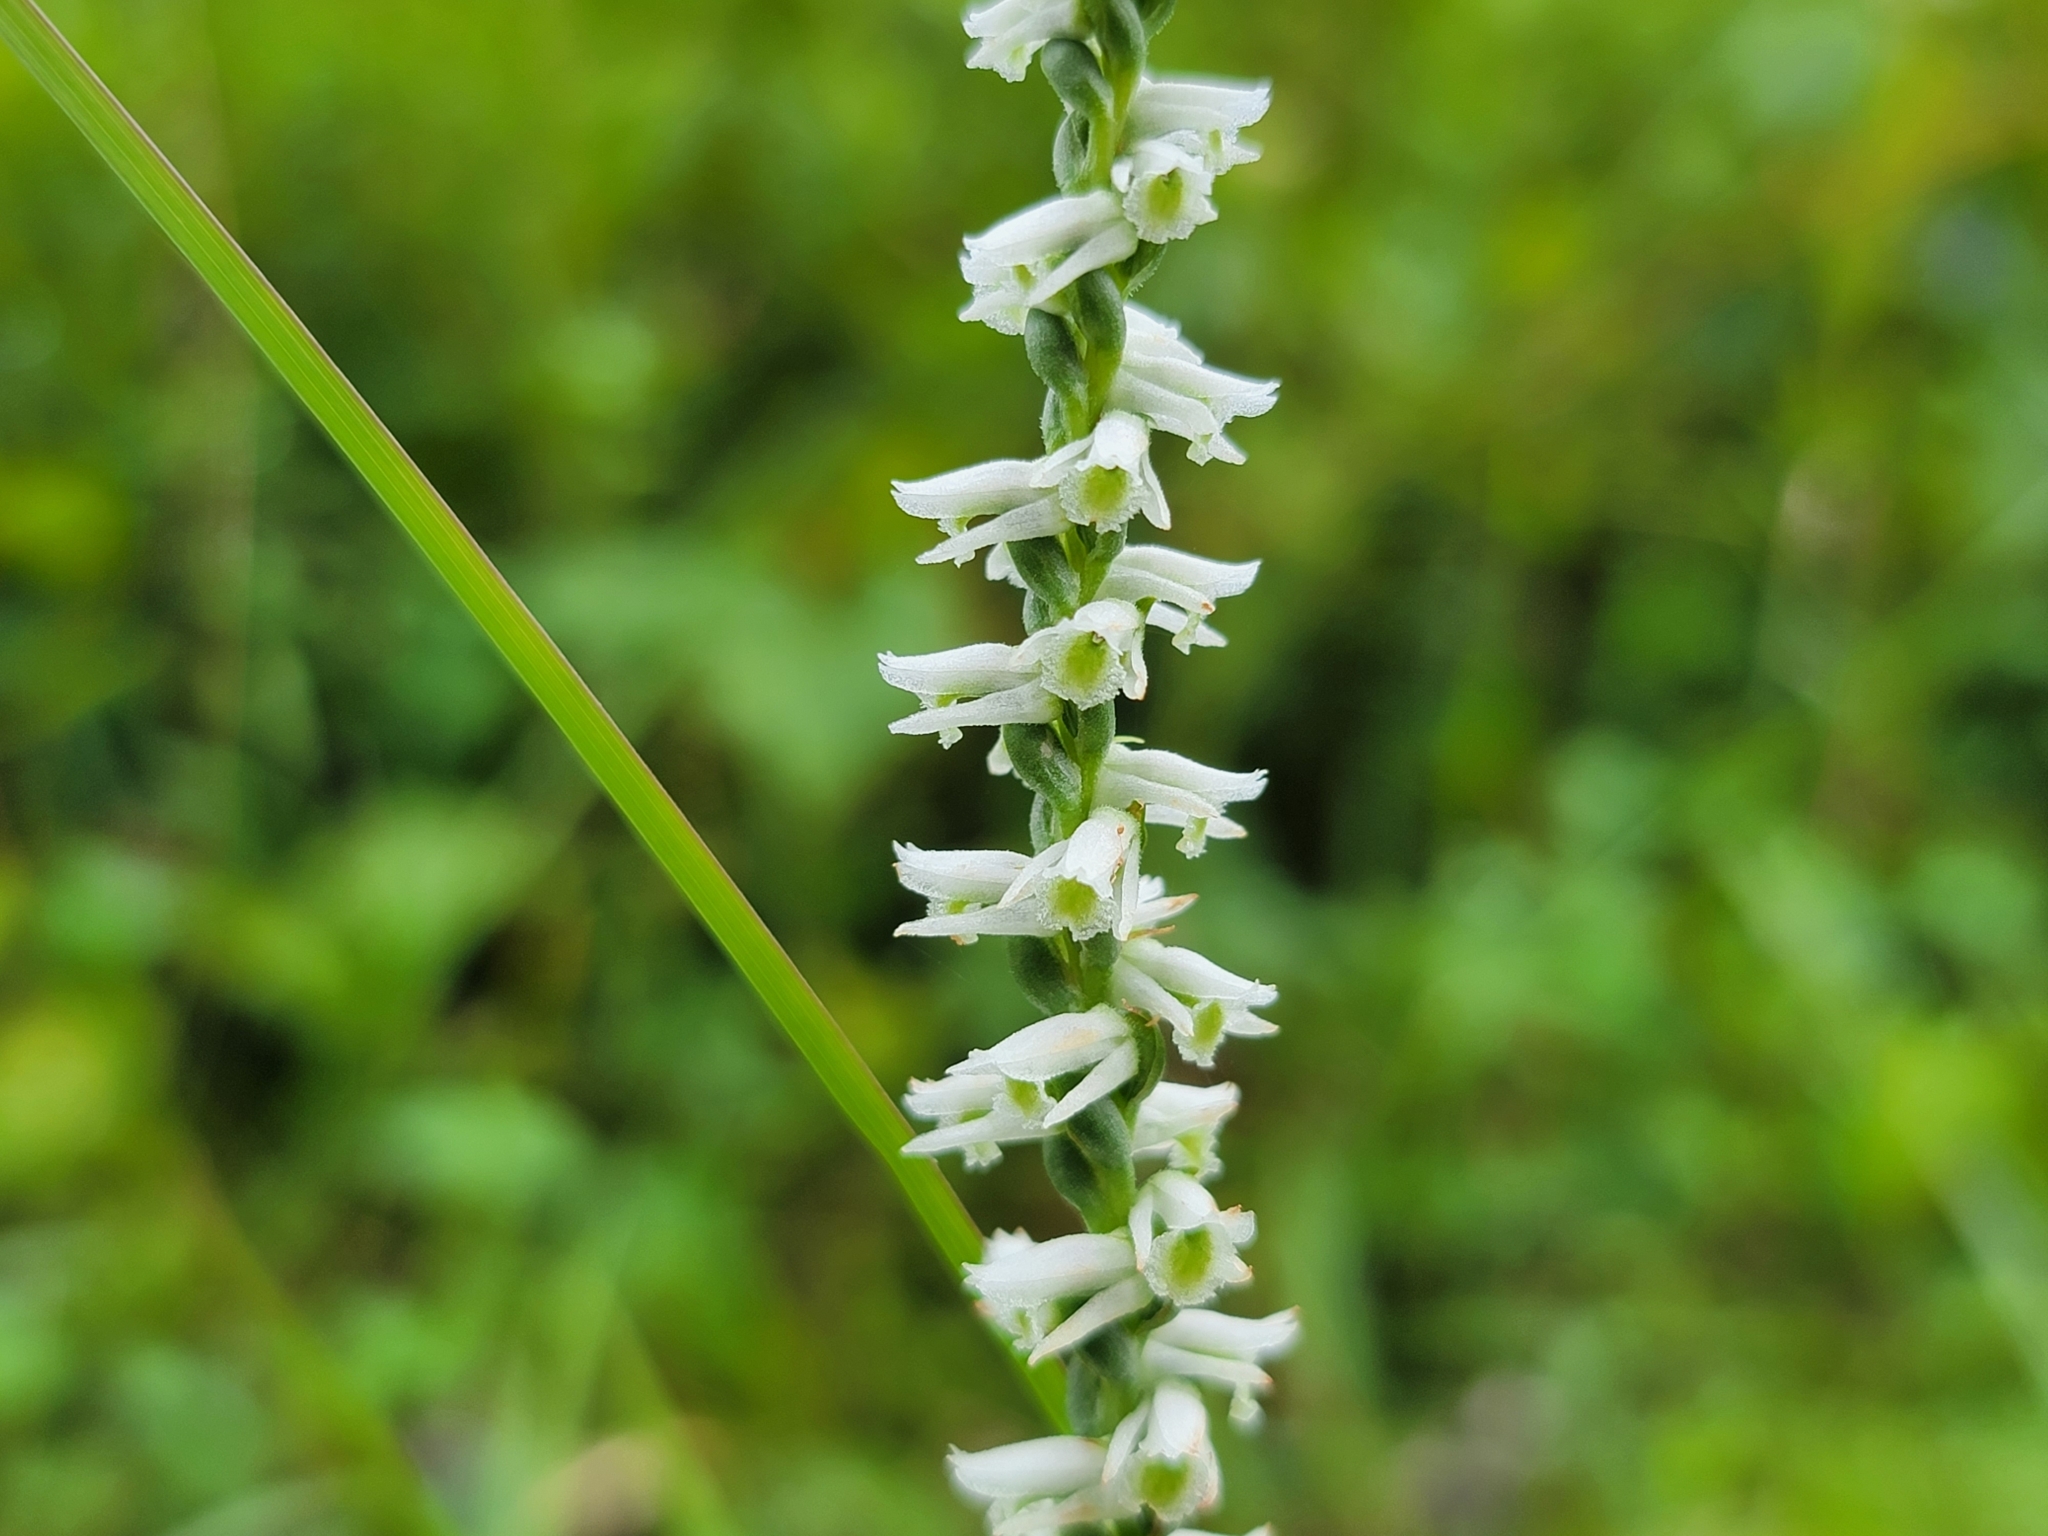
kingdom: Plantae
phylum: Tracheophyta
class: Liliopsida
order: Asparagales
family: Orchidaceae
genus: Spiranthes
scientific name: Spiranthes lacera
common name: Northern slender ladies'-tresses
